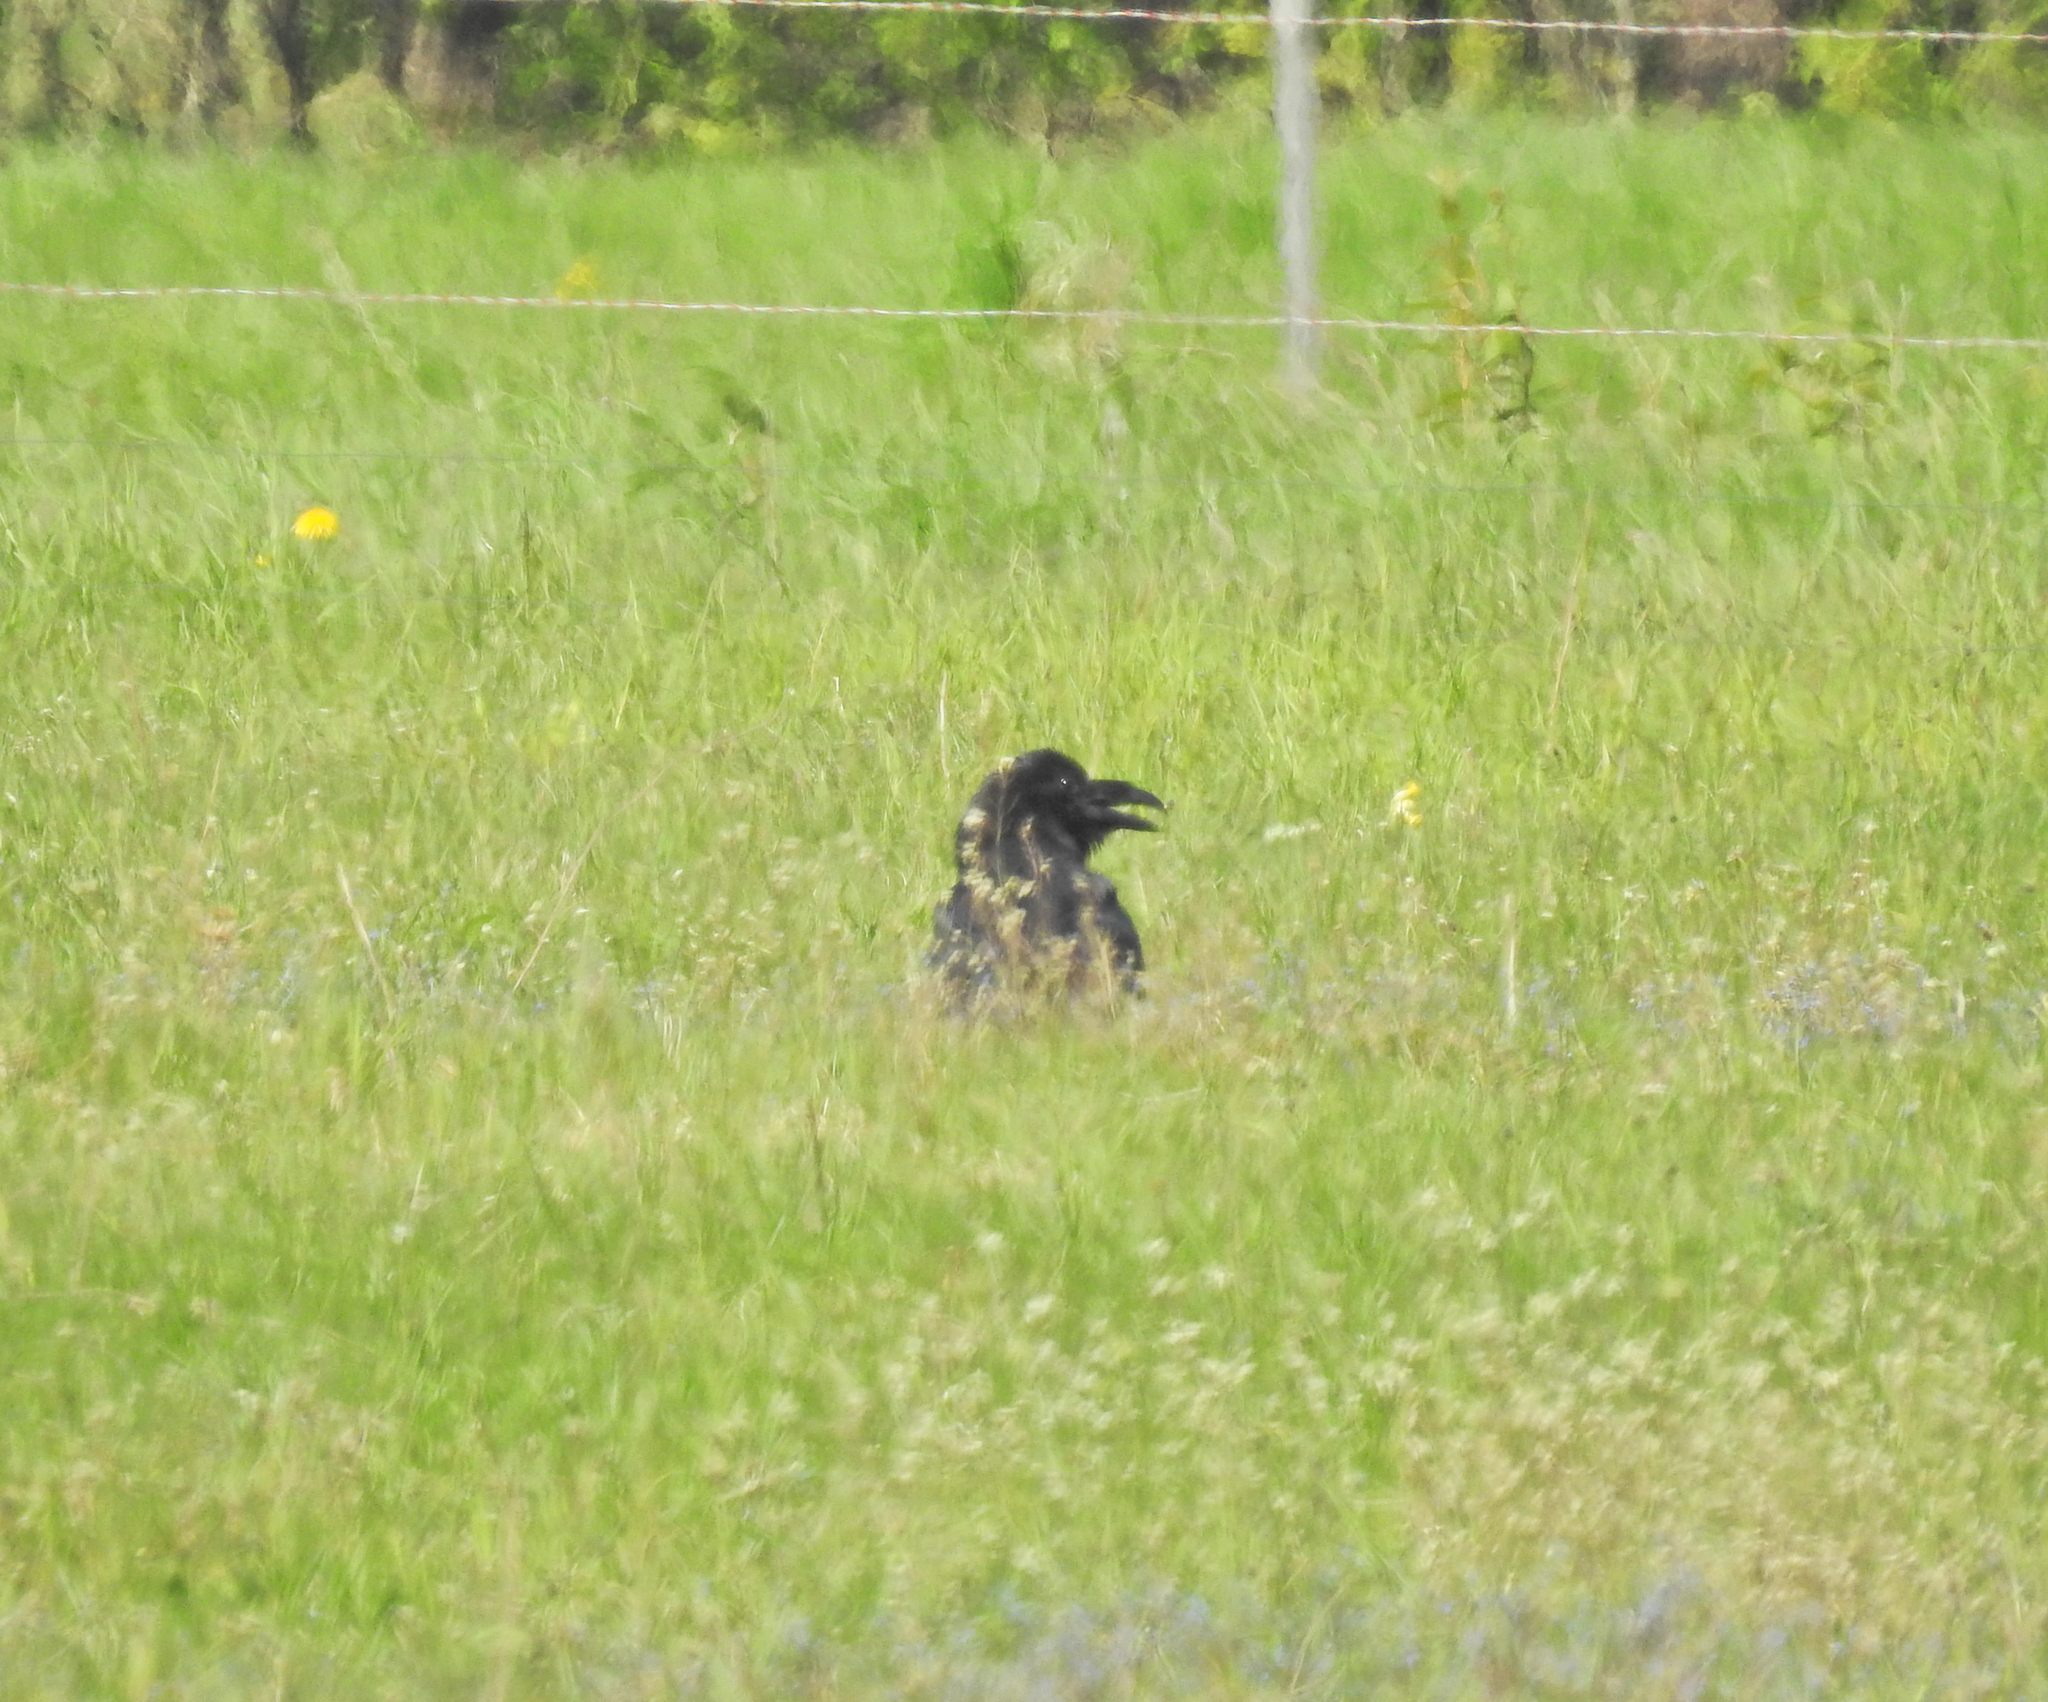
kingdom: Animalia
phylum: Chordata
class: Aves
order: Passeriformes
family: Corvidae
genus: Corvus
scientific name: Corvus corax
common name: Common raven
